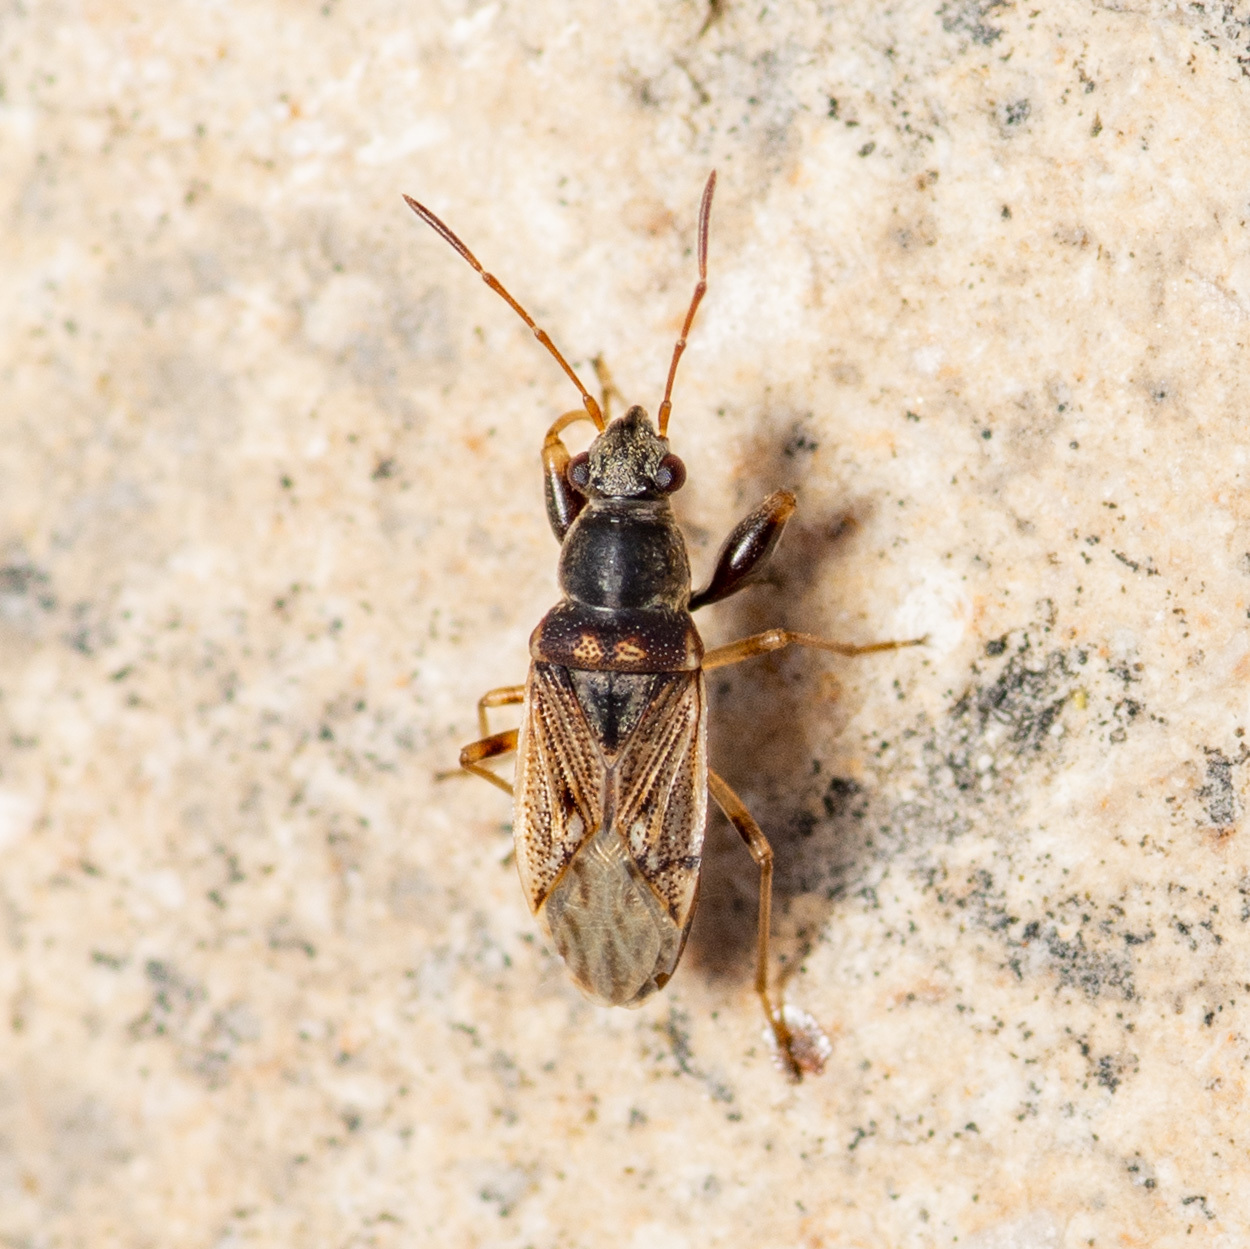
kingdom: Animalia
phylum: Arthropoda
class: Insecta
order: Hemiptera
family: Rhyparochromidae
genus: Pseudopachybrachius
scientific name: Pseudopachybrachius basalis
